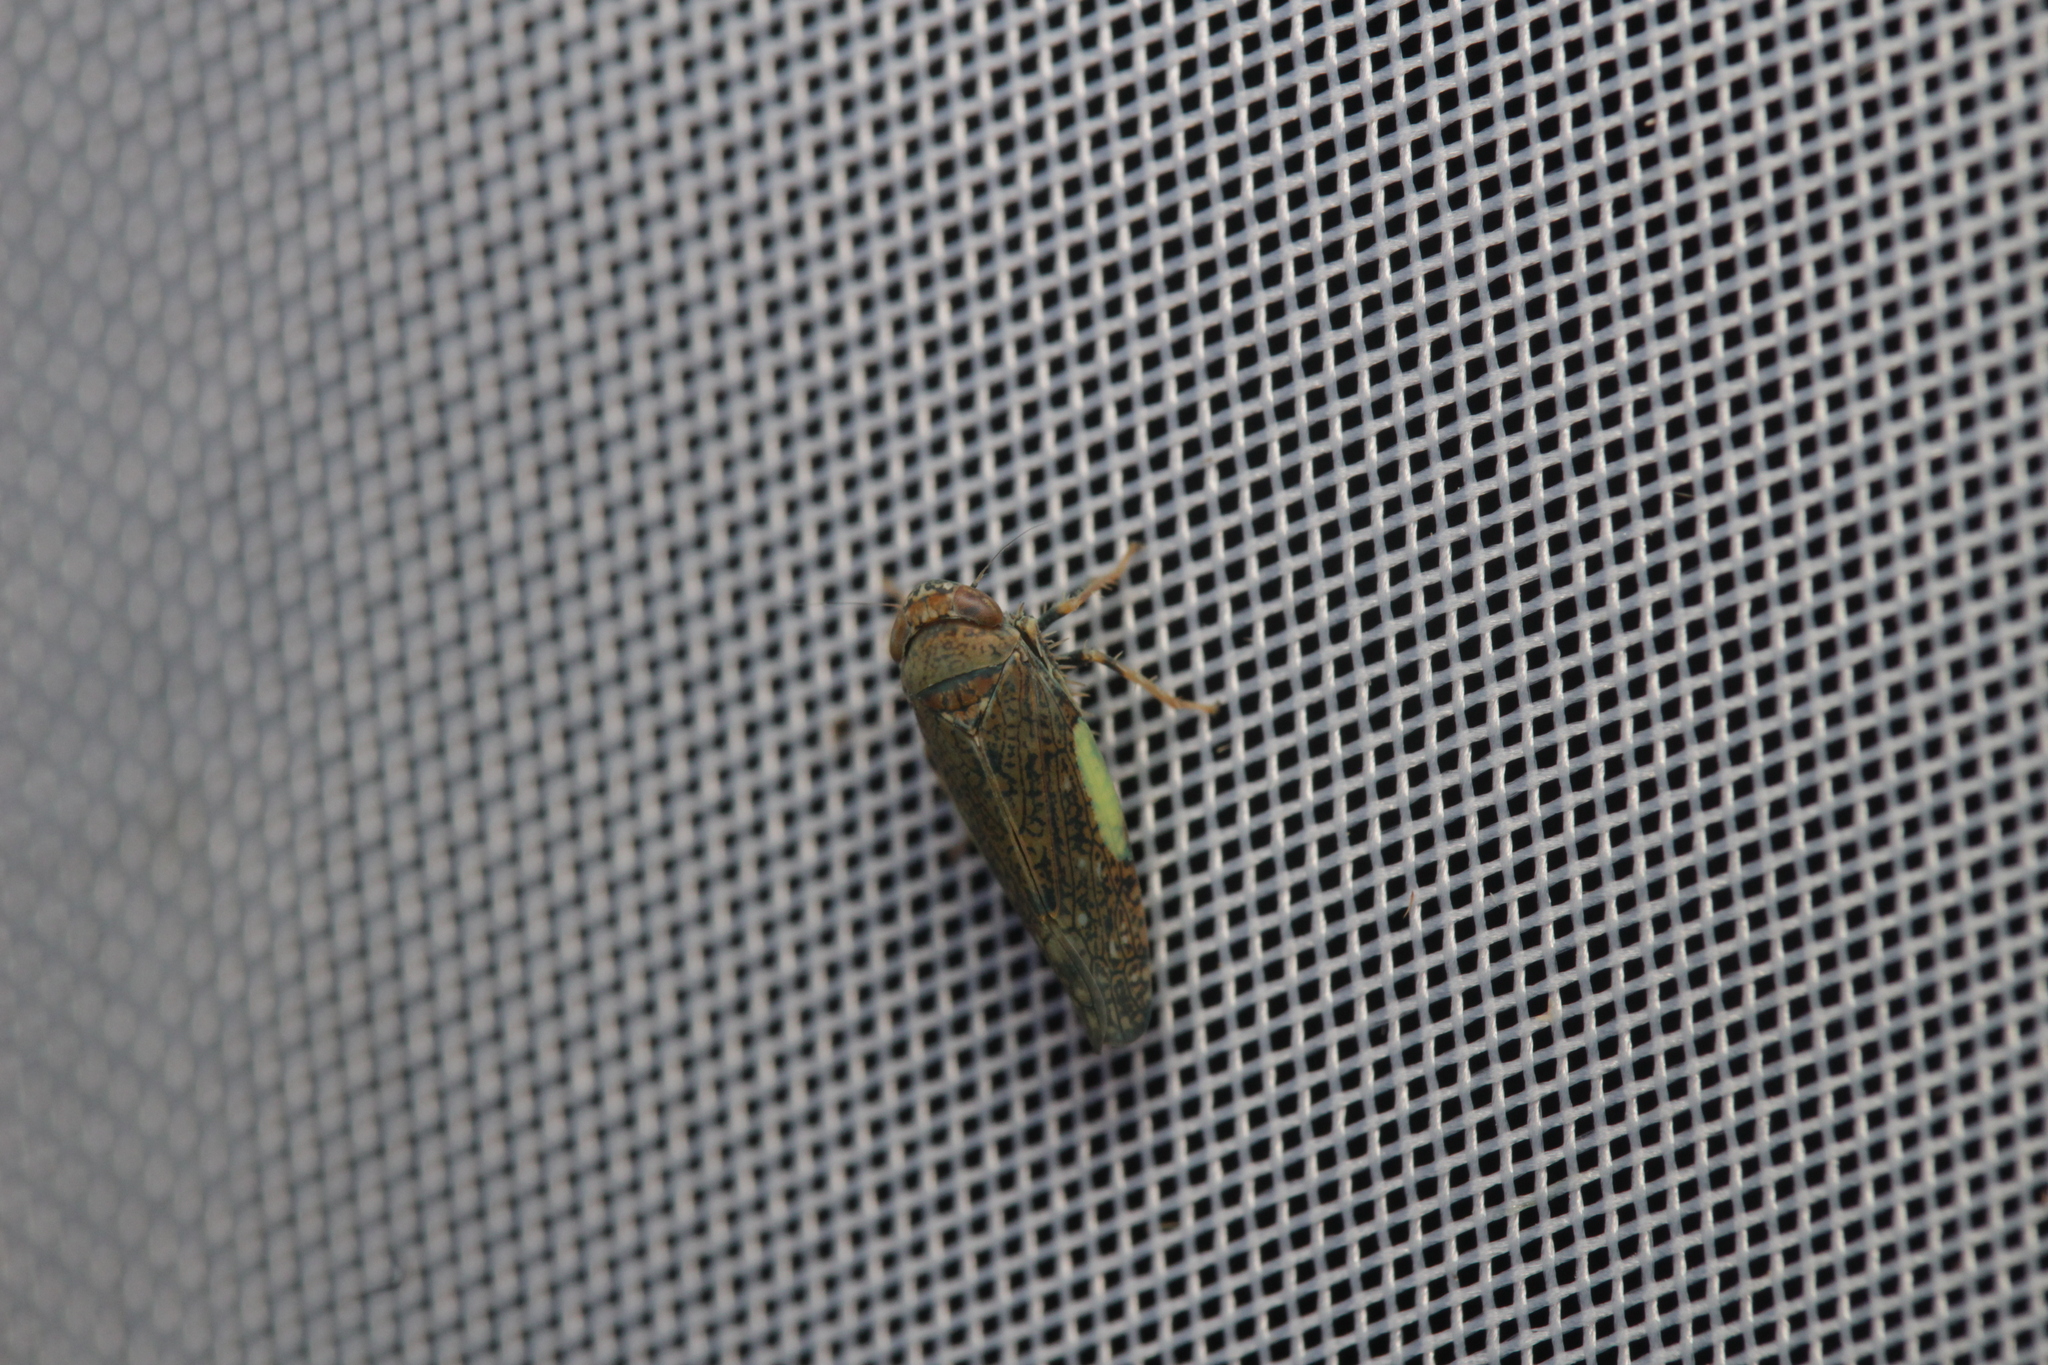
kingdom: Animalia
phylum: Arthropoda
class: Insecta
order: Hemiptera
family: Cicadellidae
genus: Orientus
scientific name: Orientus ishidae
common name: Japanese leafhopper
